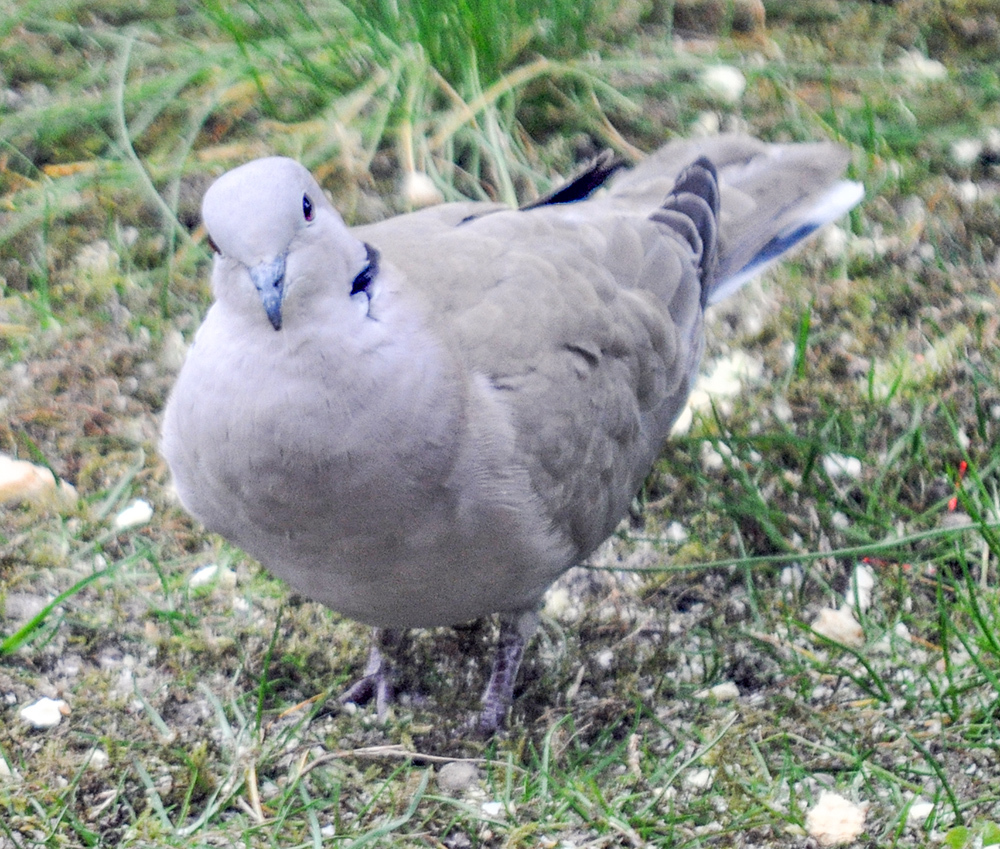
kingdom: Animalia
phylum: Chordata
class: Aves
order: Columbiformes
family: Columbidae
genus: Streptopelia
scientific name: Streptopelia decaocto
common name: Eurasian collared dove
